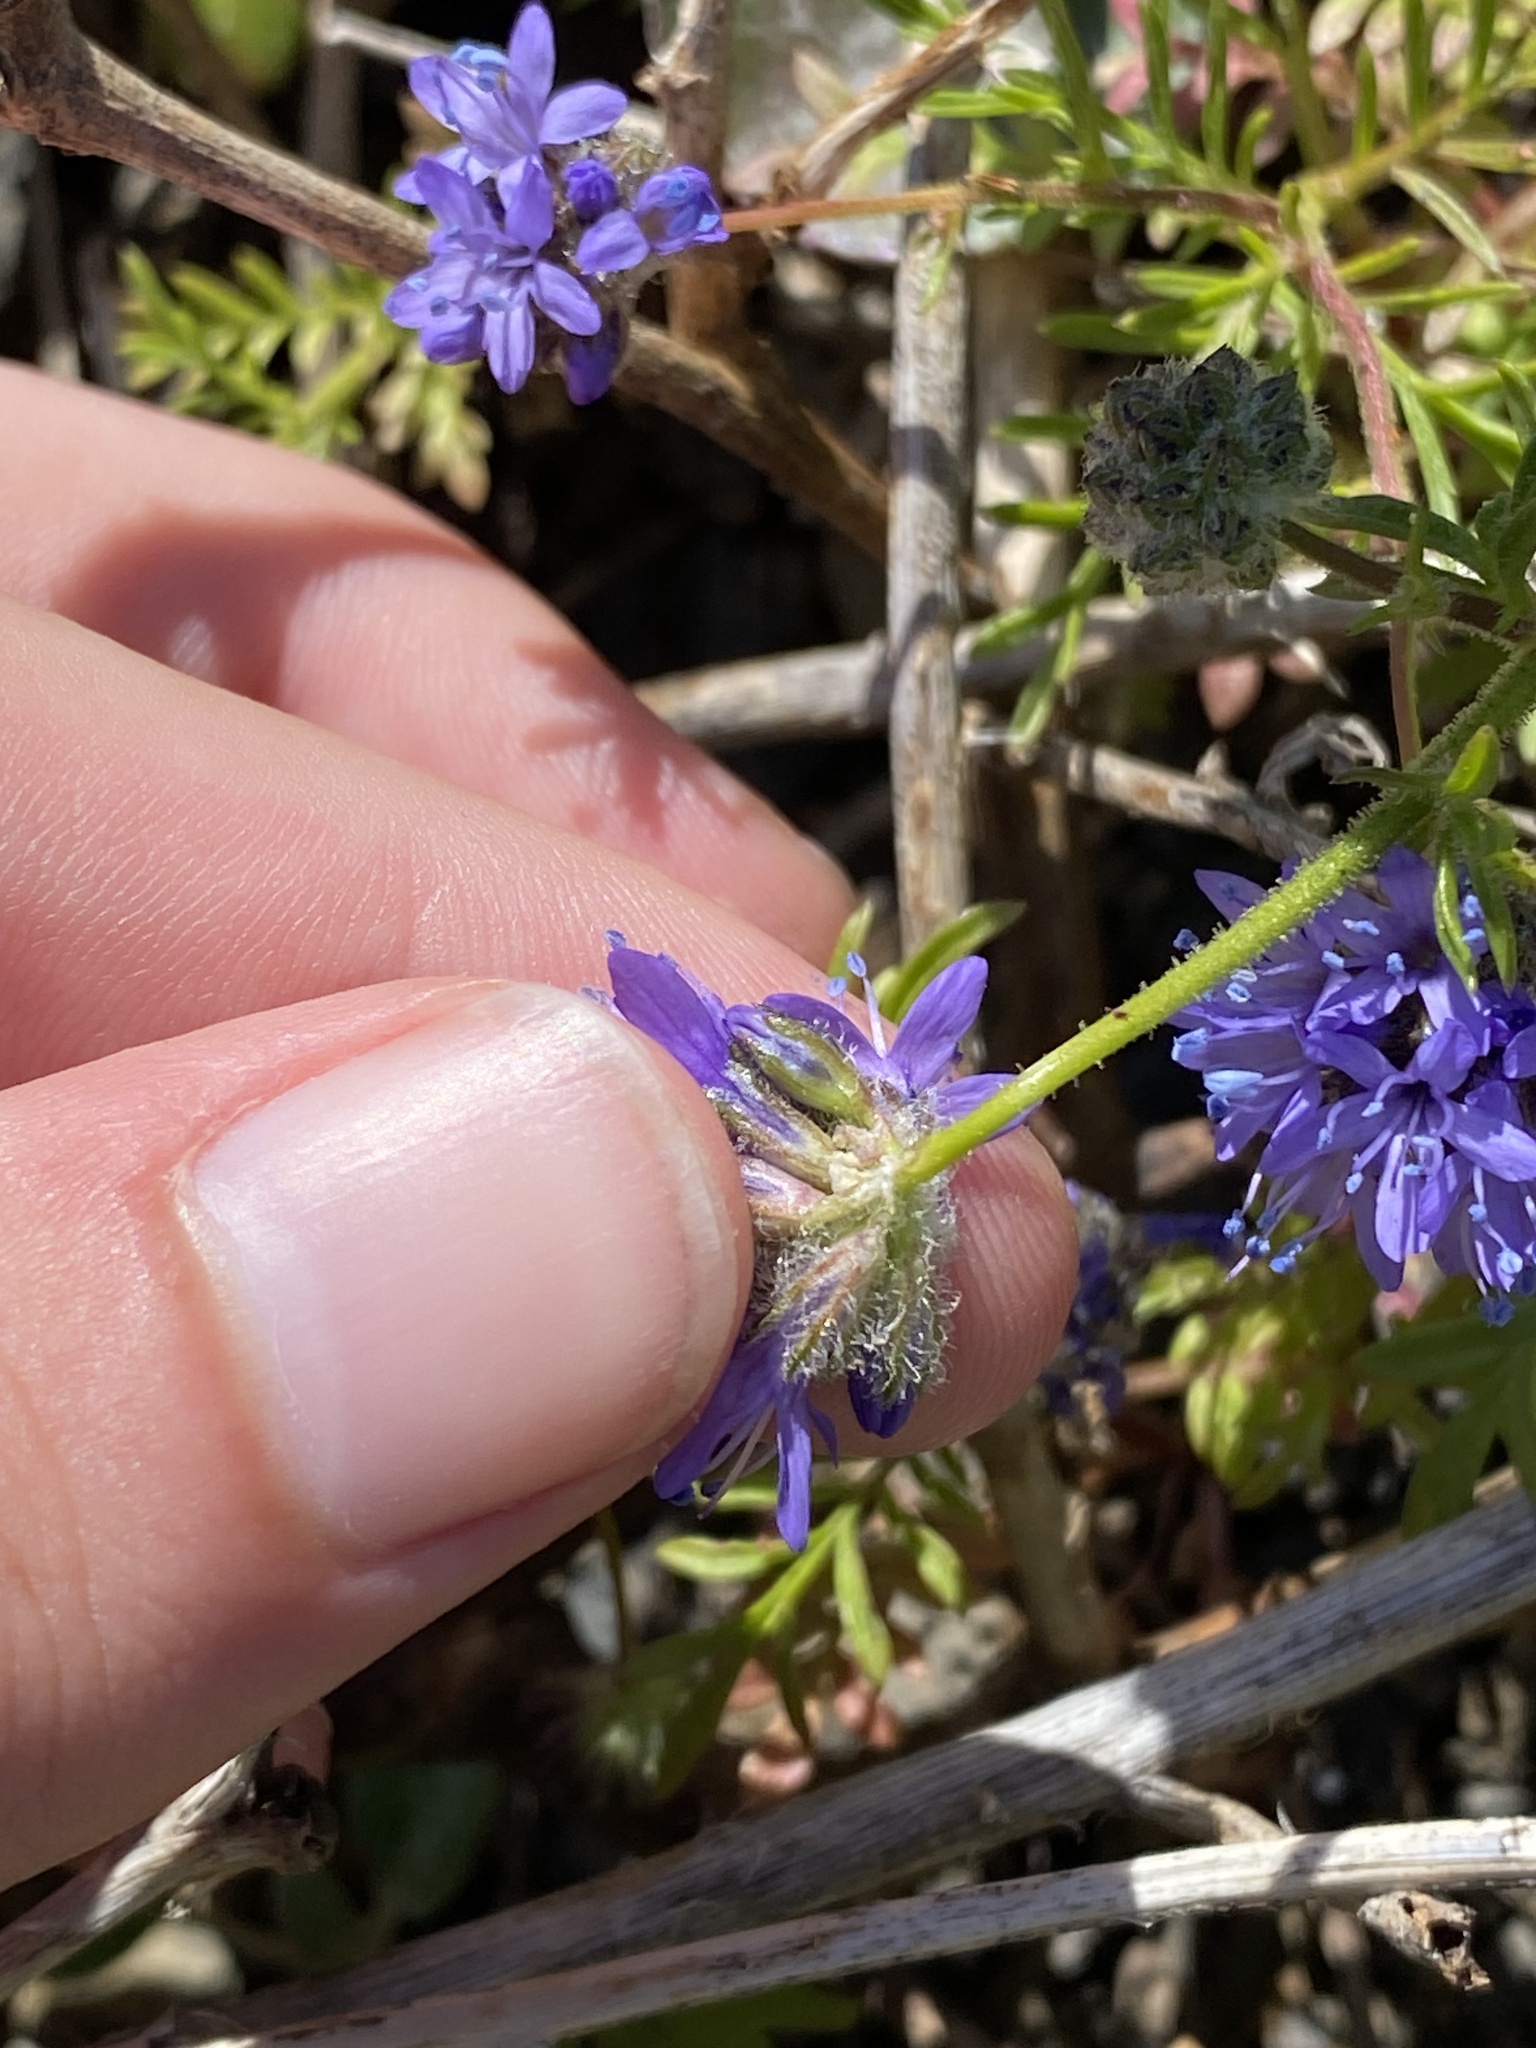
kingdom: Plantae
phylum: Tracheophyta
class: Magnoliopsida
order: Ericales
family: Polemoniaceae
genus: Gilia
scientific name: Gilia capitata
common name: Bluehead gilia
